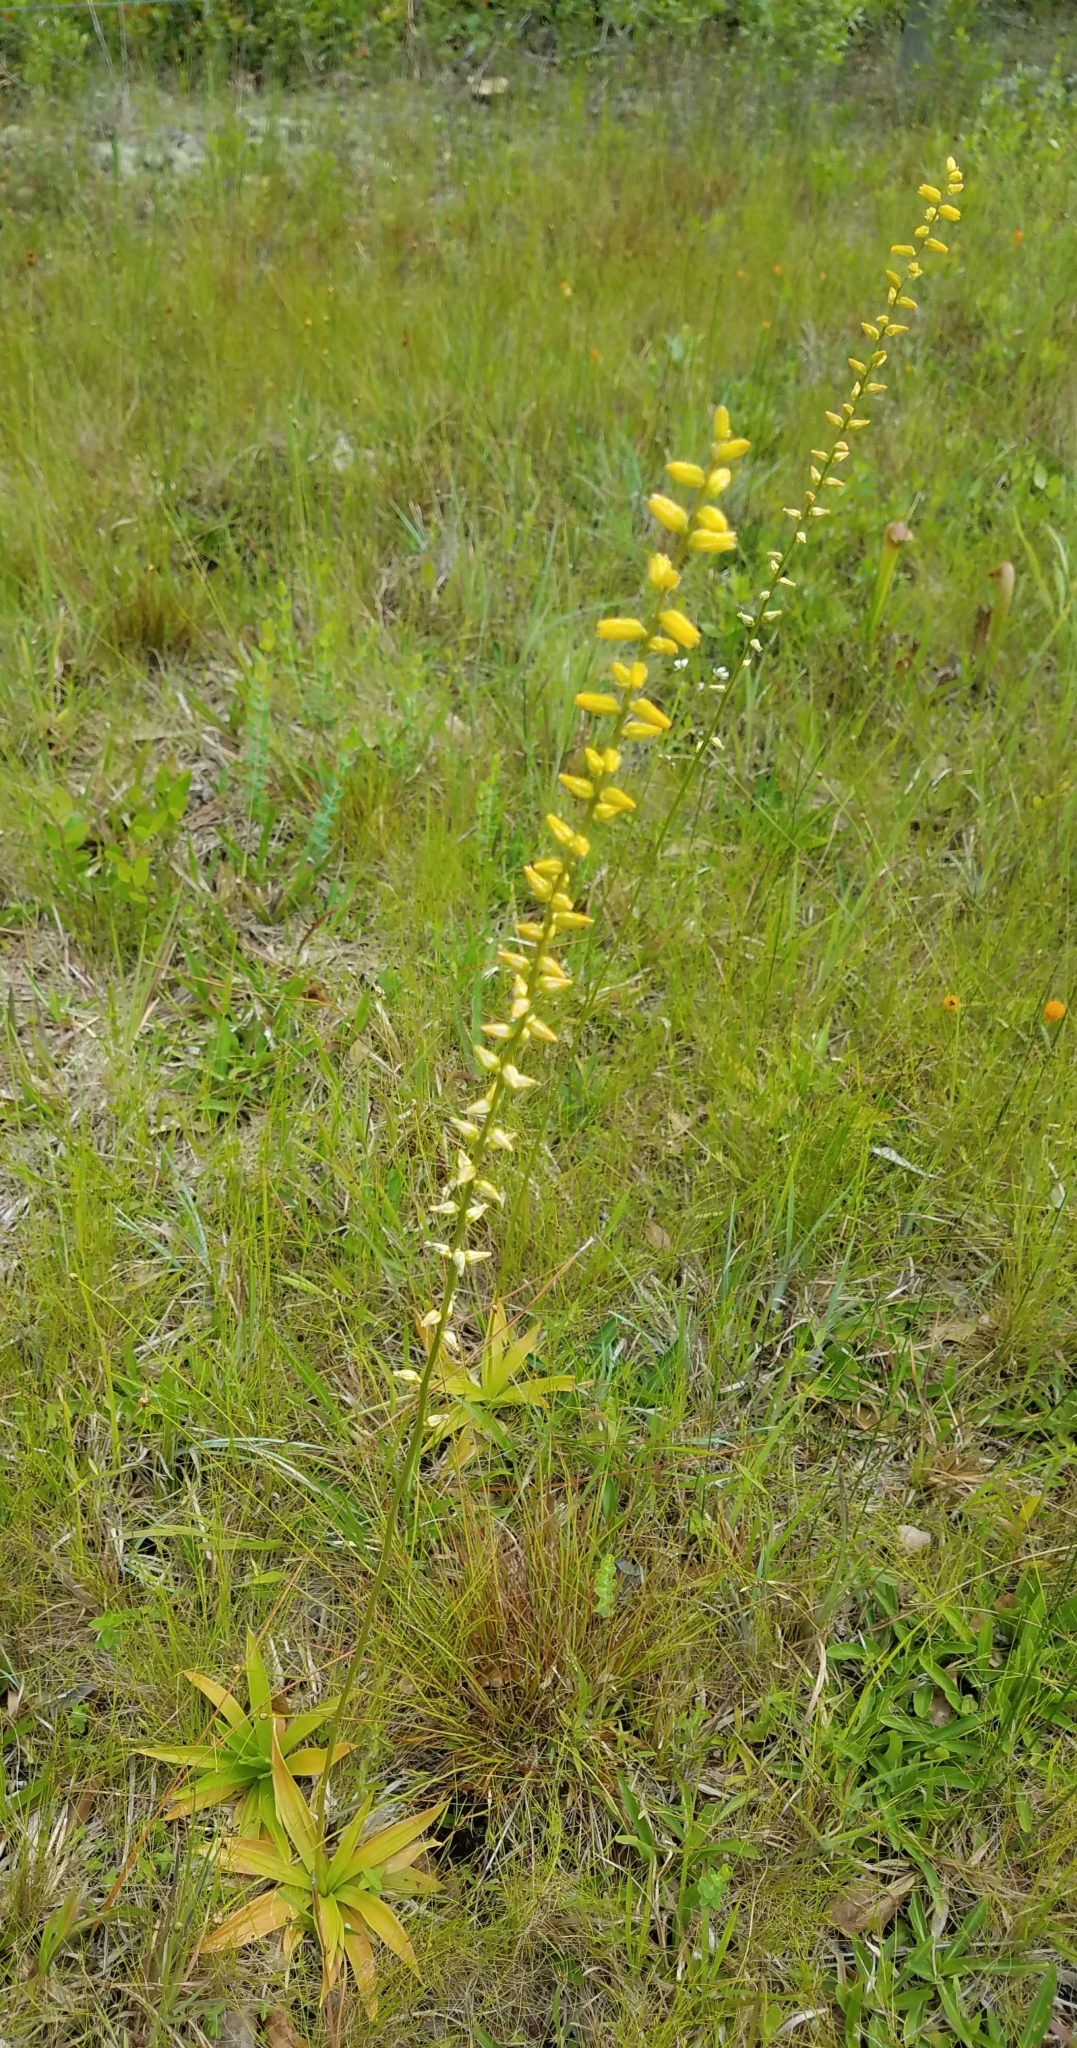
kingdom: Plantae
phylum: Tracheophyta
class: Liliopsida
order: Dioscoreales
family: Nartheciaceae
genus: Aletris
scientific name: Aletris lutea
